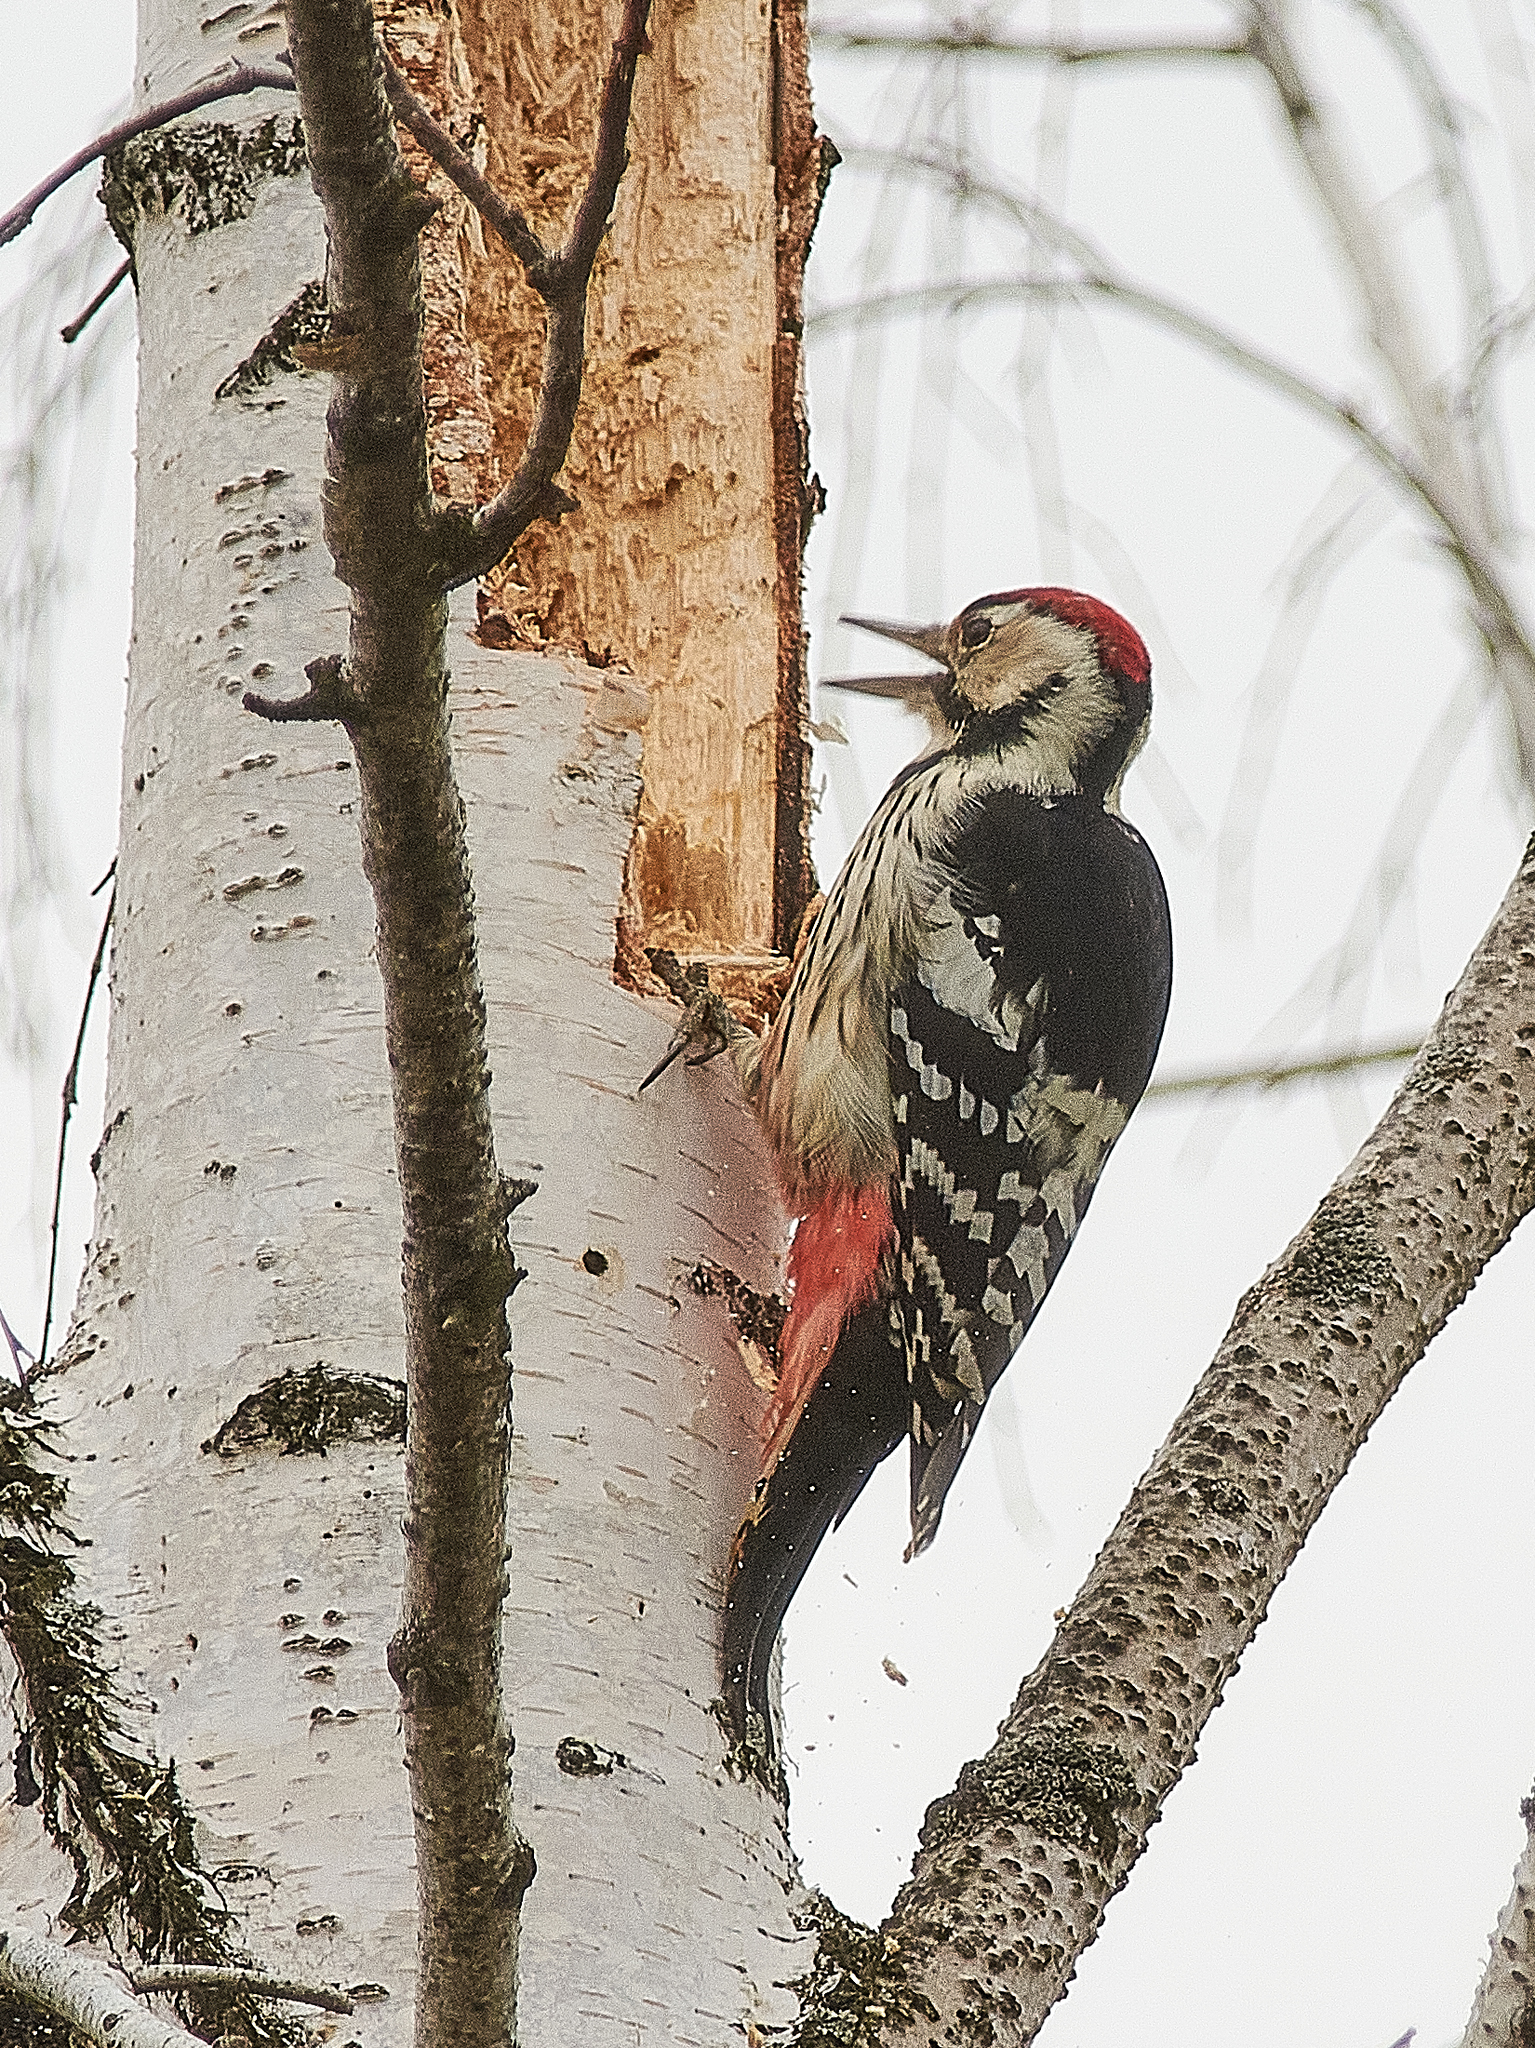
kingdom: Animalia
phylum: Chordata
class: Aves
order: Piciformes
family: Picidae
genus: Dendrocopos
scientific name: Dendrocopos leucotos
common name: White-backed woodpecker
